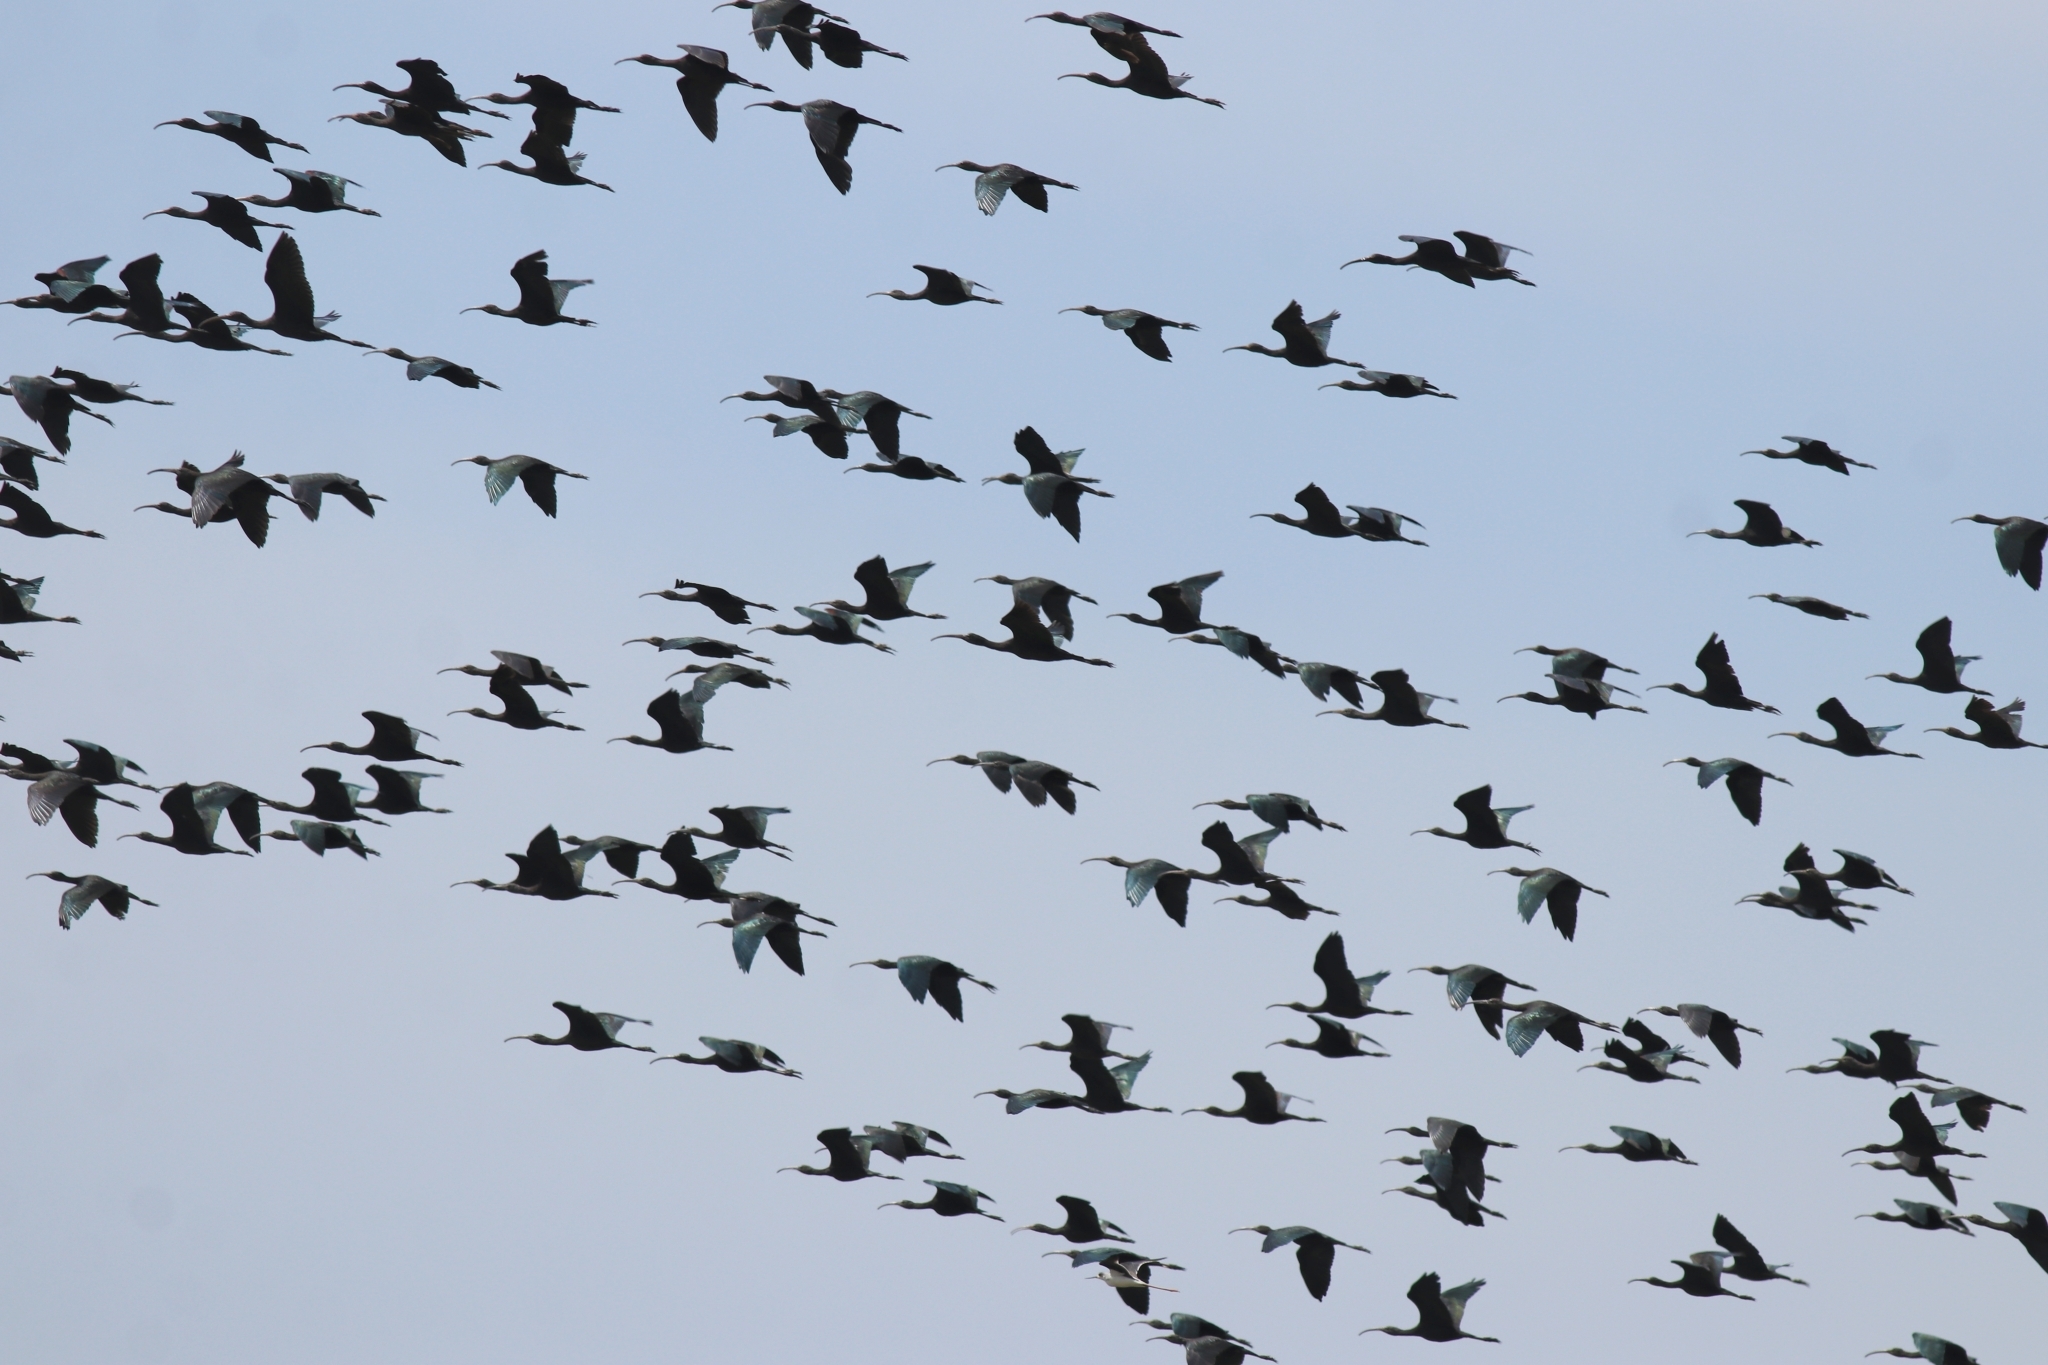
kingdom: Animalia
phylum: Chordata
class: Aves
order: Pelecaniformes
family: Threskiornithidae
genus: Plegadis
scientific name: Plegadis falcinellus
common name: Glossy ibis
